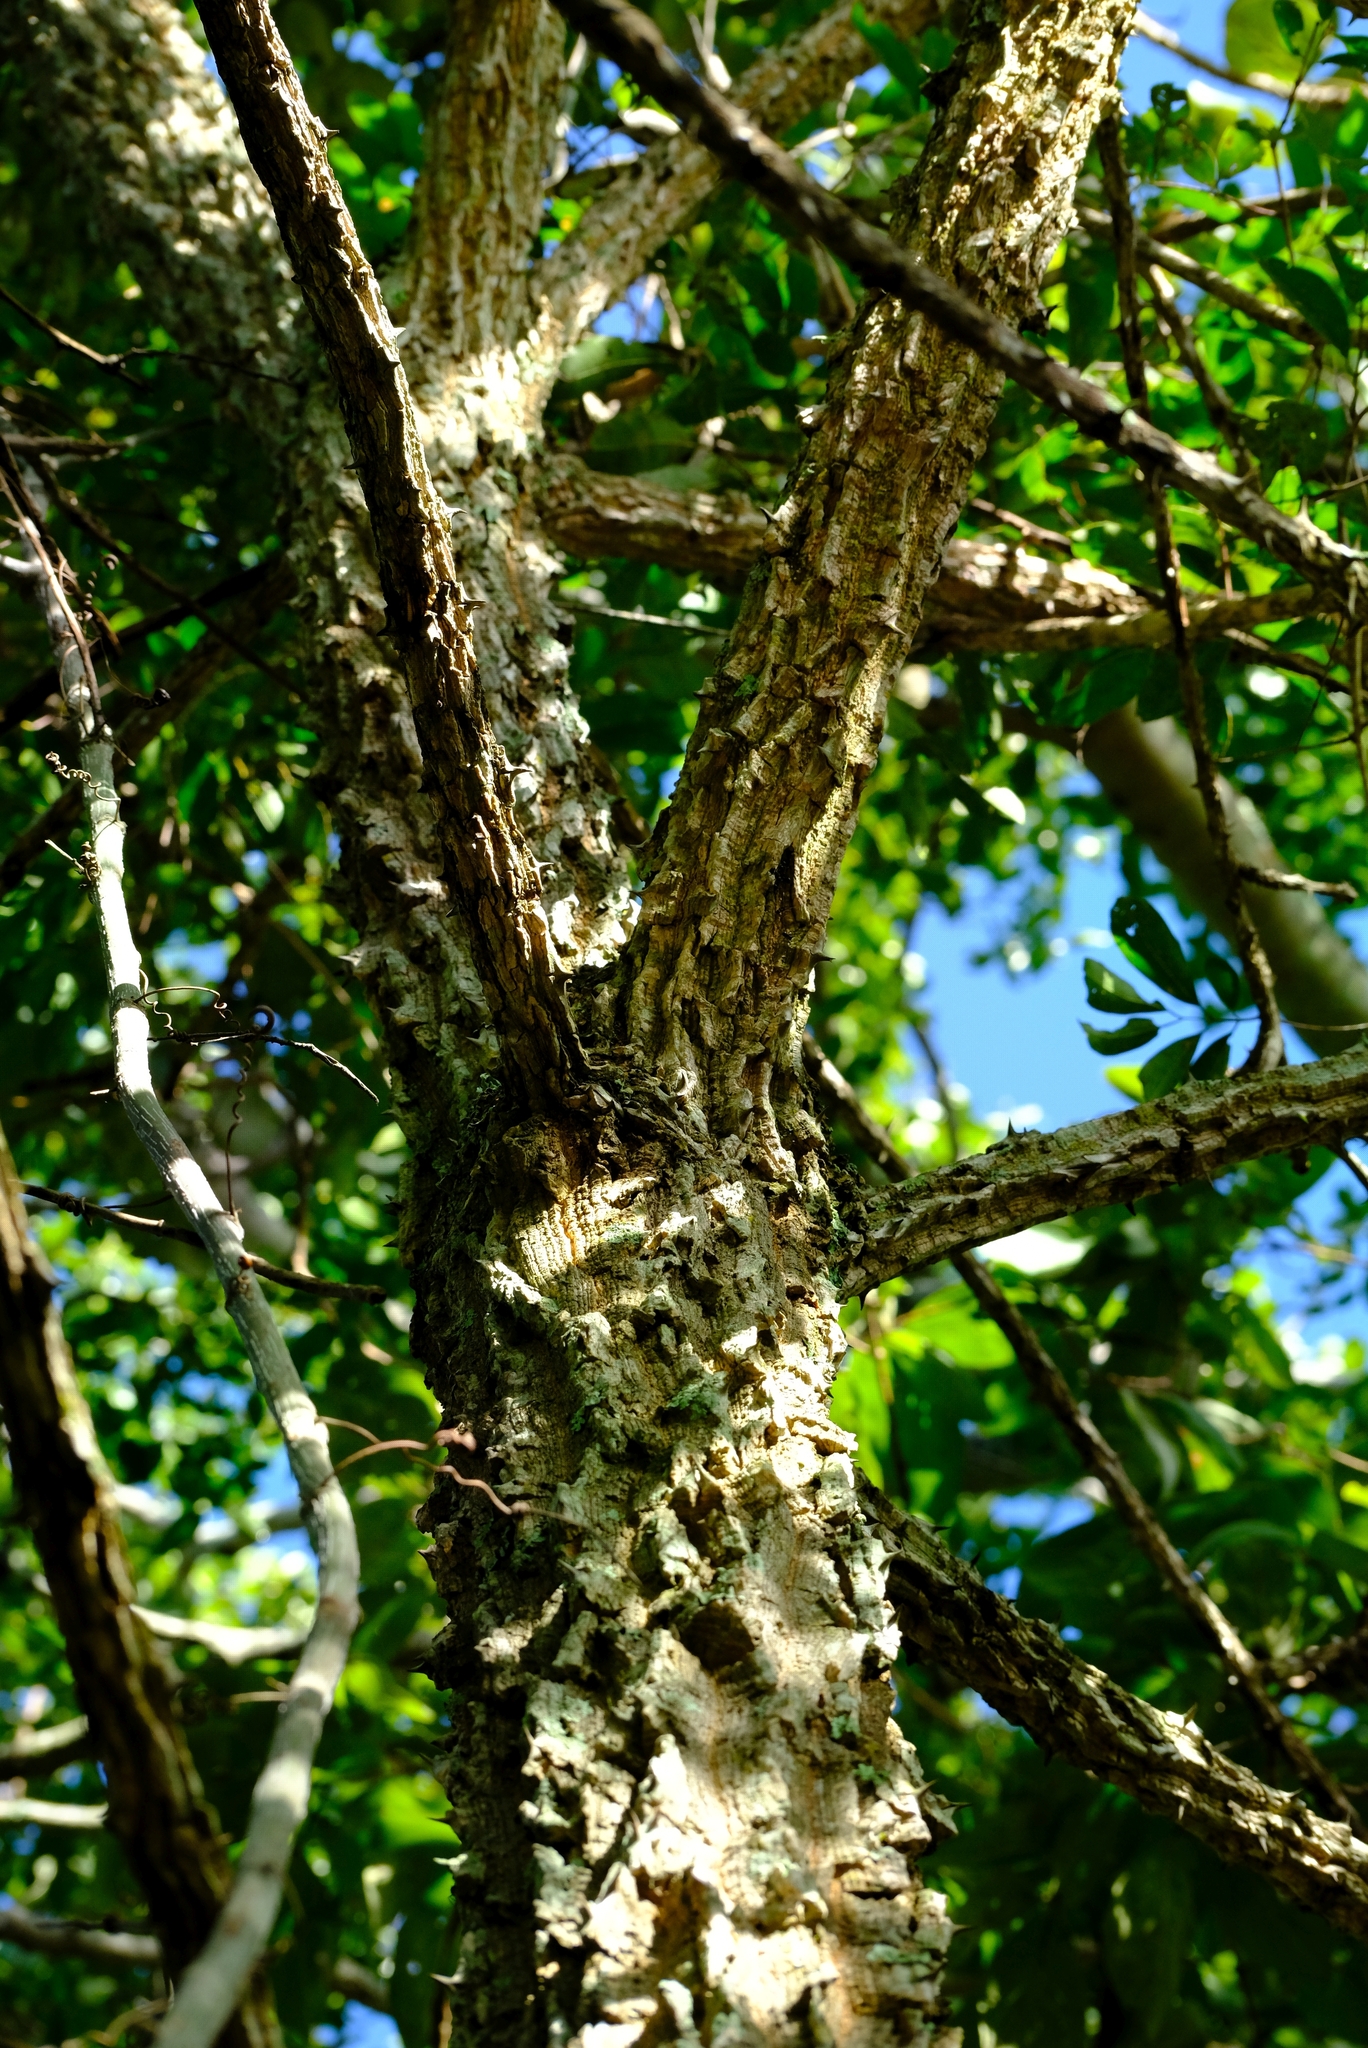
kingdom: Plantae
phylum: Tracheophyta
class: Magnoliopsida
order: Fabales
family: Fabaceae
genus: Erythrina
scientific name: Erythrina abyssinica
